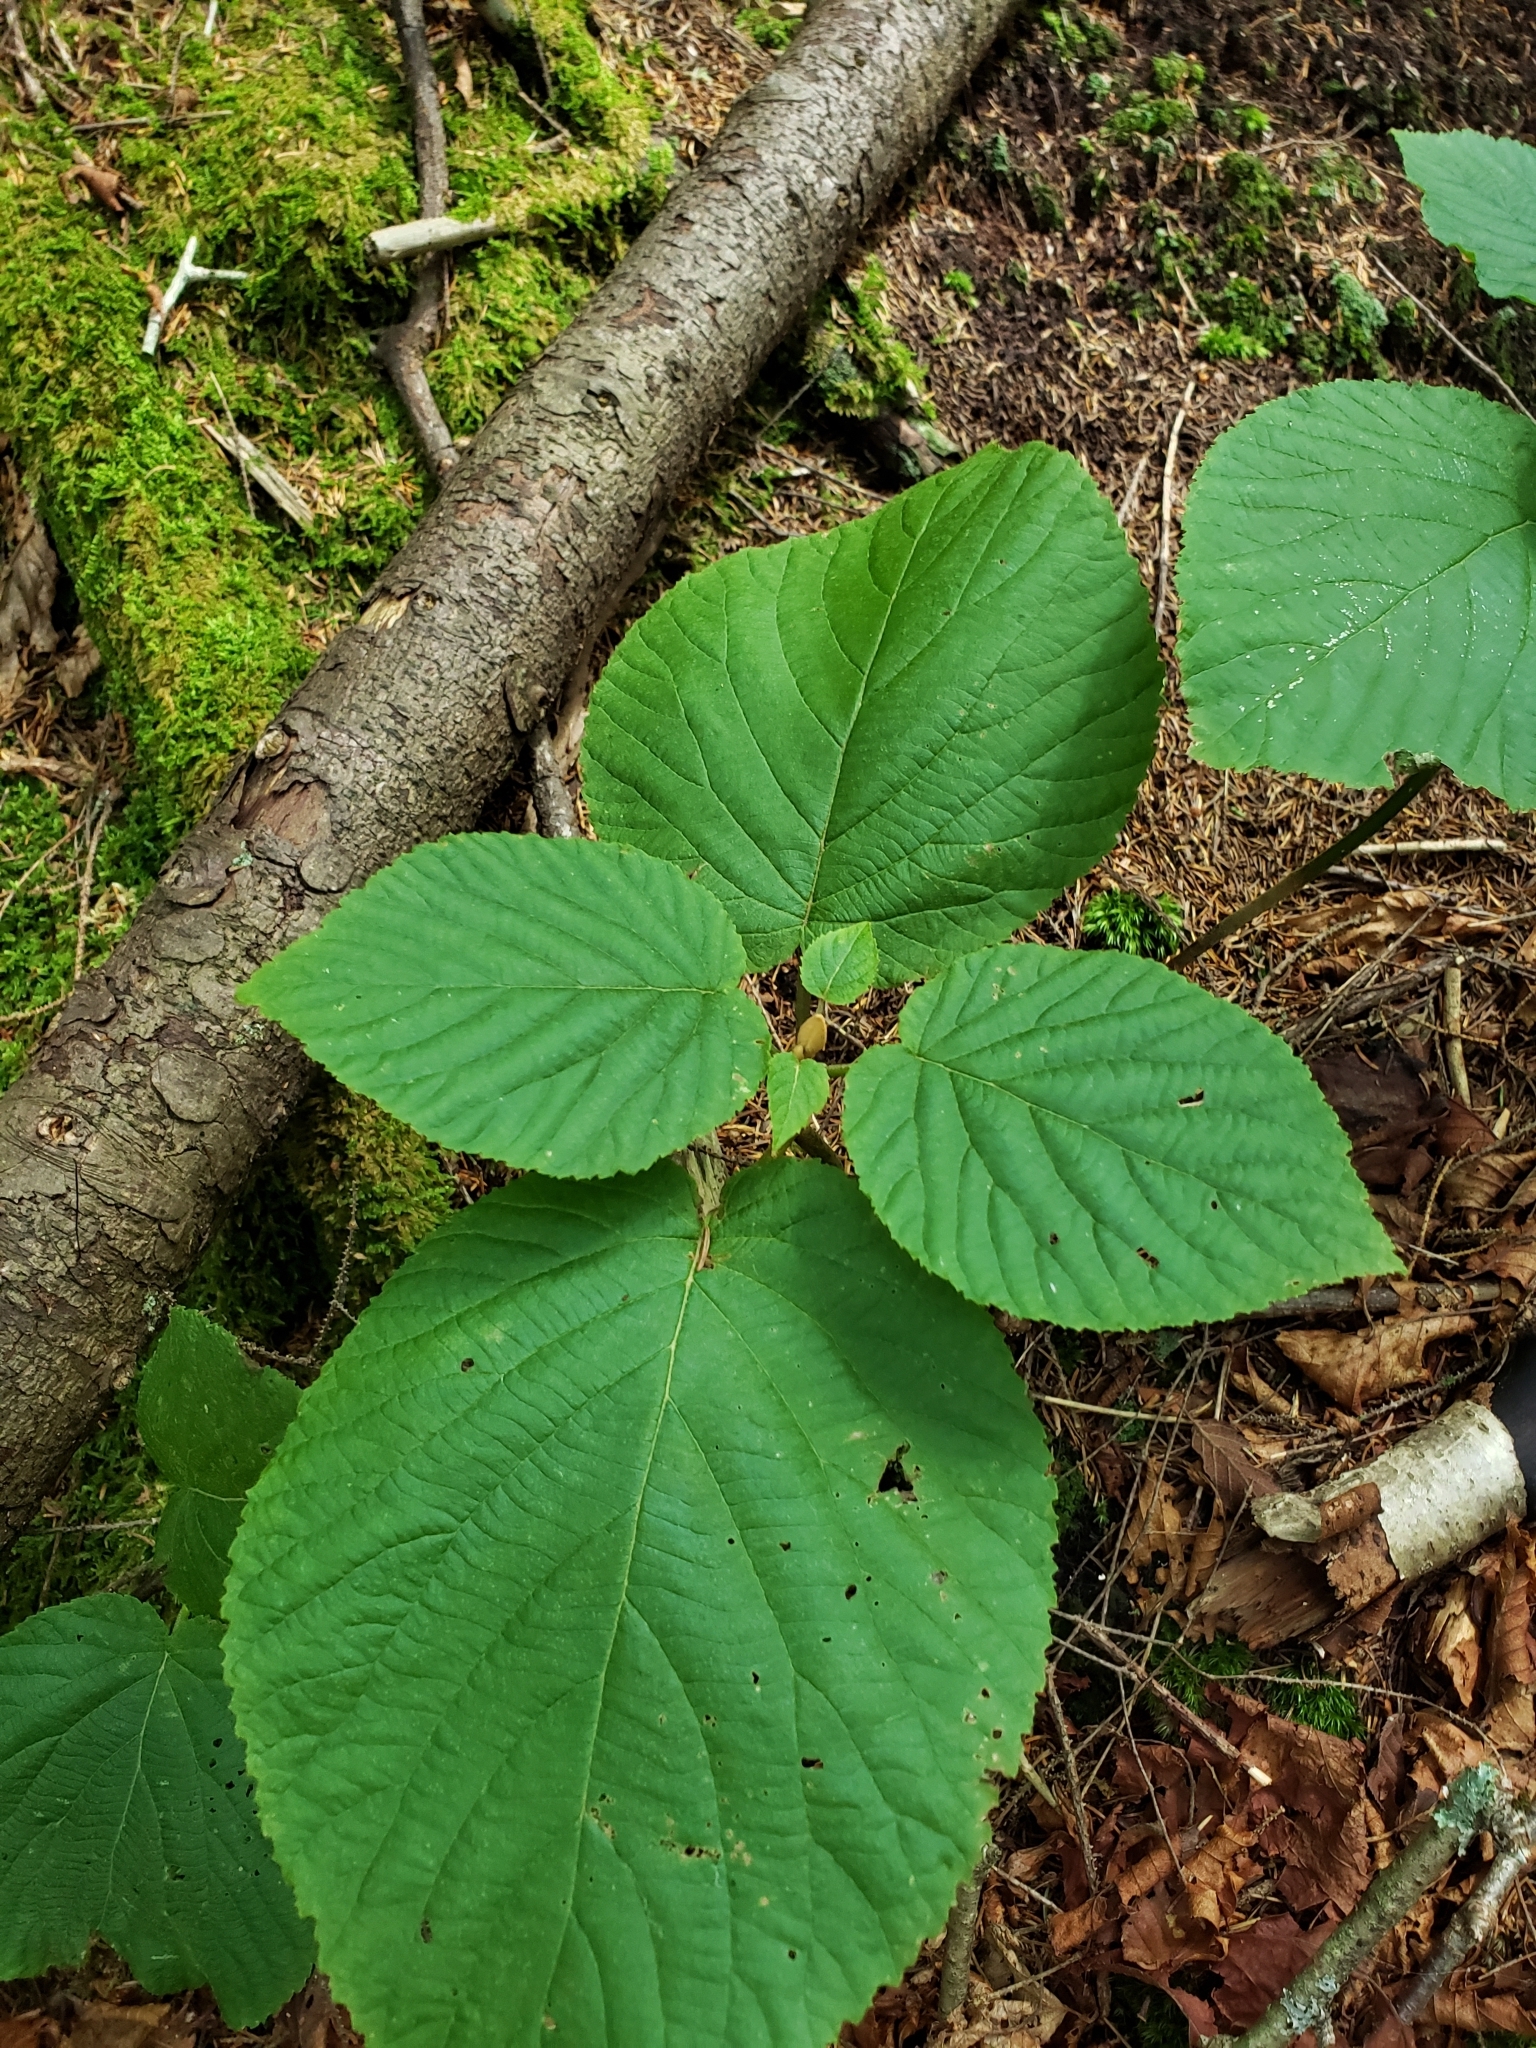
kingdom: Plantae
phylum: Tracheophyta
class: Magnoliopsida
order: Dipsacales
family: Viburnaceae
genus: Viburnum
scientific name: Viburnum lantanoides
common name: Hobblebush
